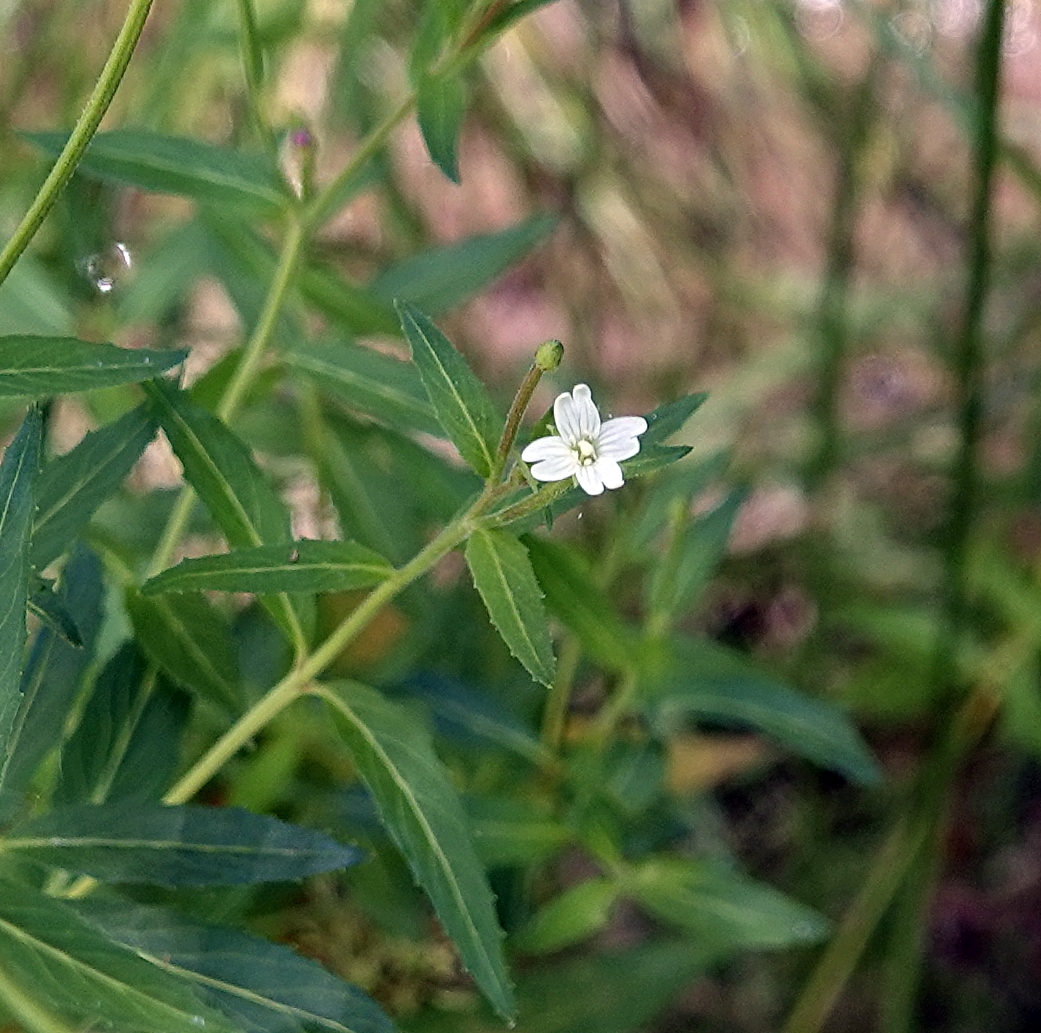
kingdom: Plantae
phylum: Tracheophyta
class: Magnoliopsida
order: Myrtales
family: Onagraceae
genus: Epilobium
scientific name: Epilobium ciliatum
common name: American willowherb
